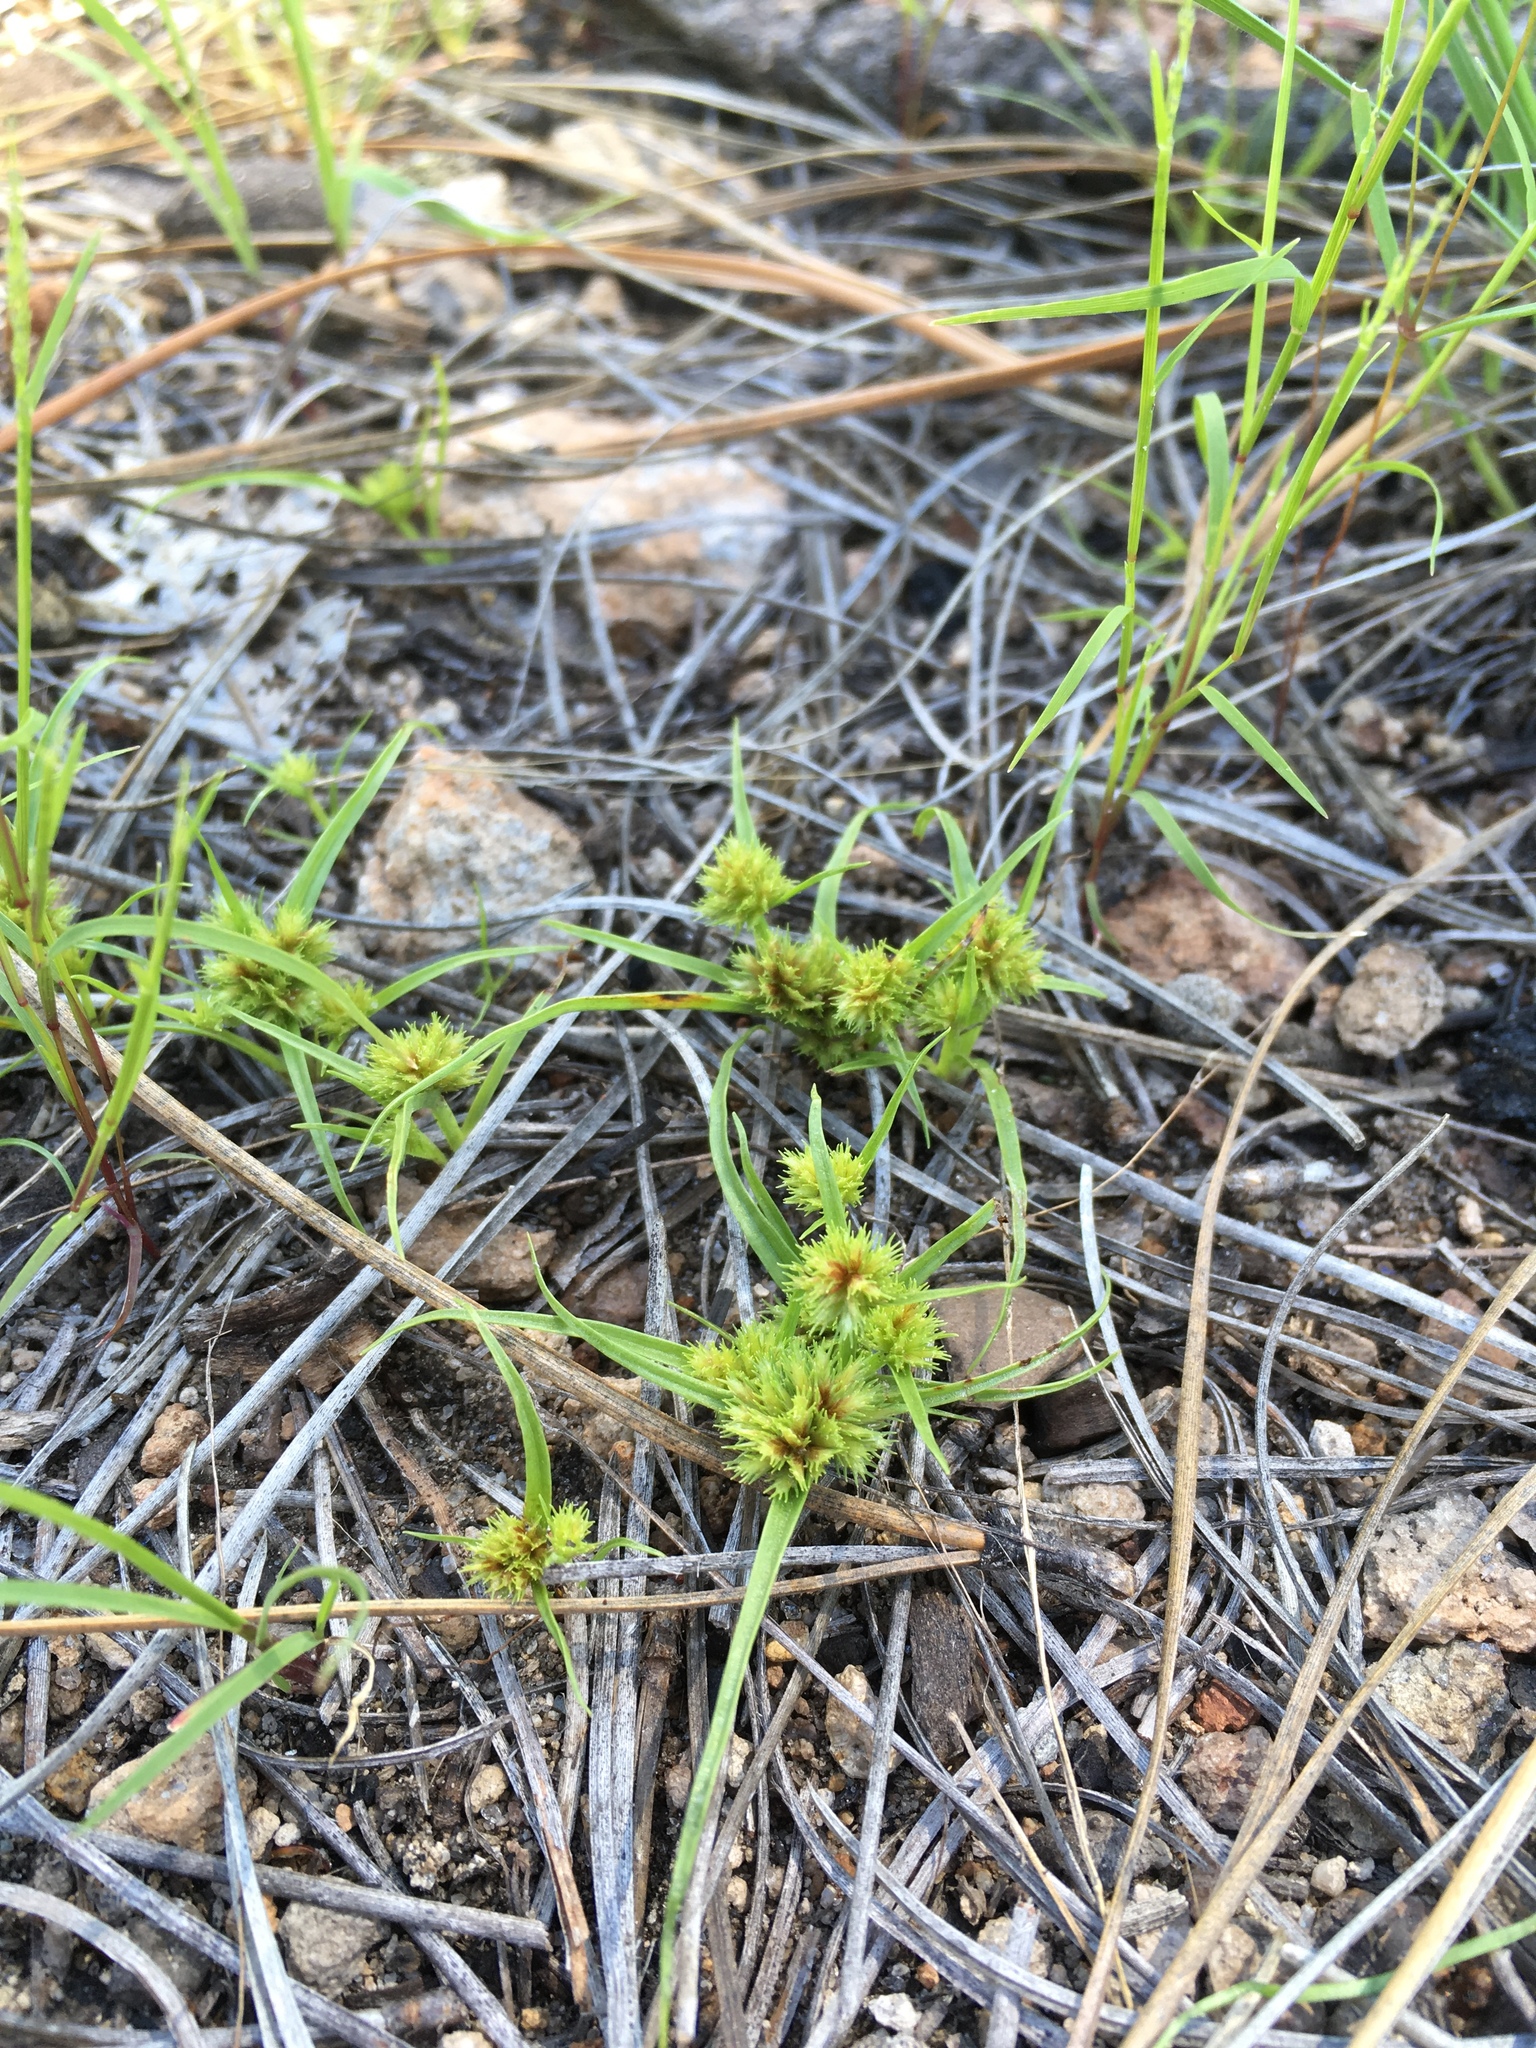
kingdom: Plantae
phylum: Tracheophyta
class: Liliopsida
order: Poales
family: Cyperaceae
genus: Cyperus
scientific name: Cyperus squarrosus
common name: Awned cyperus
